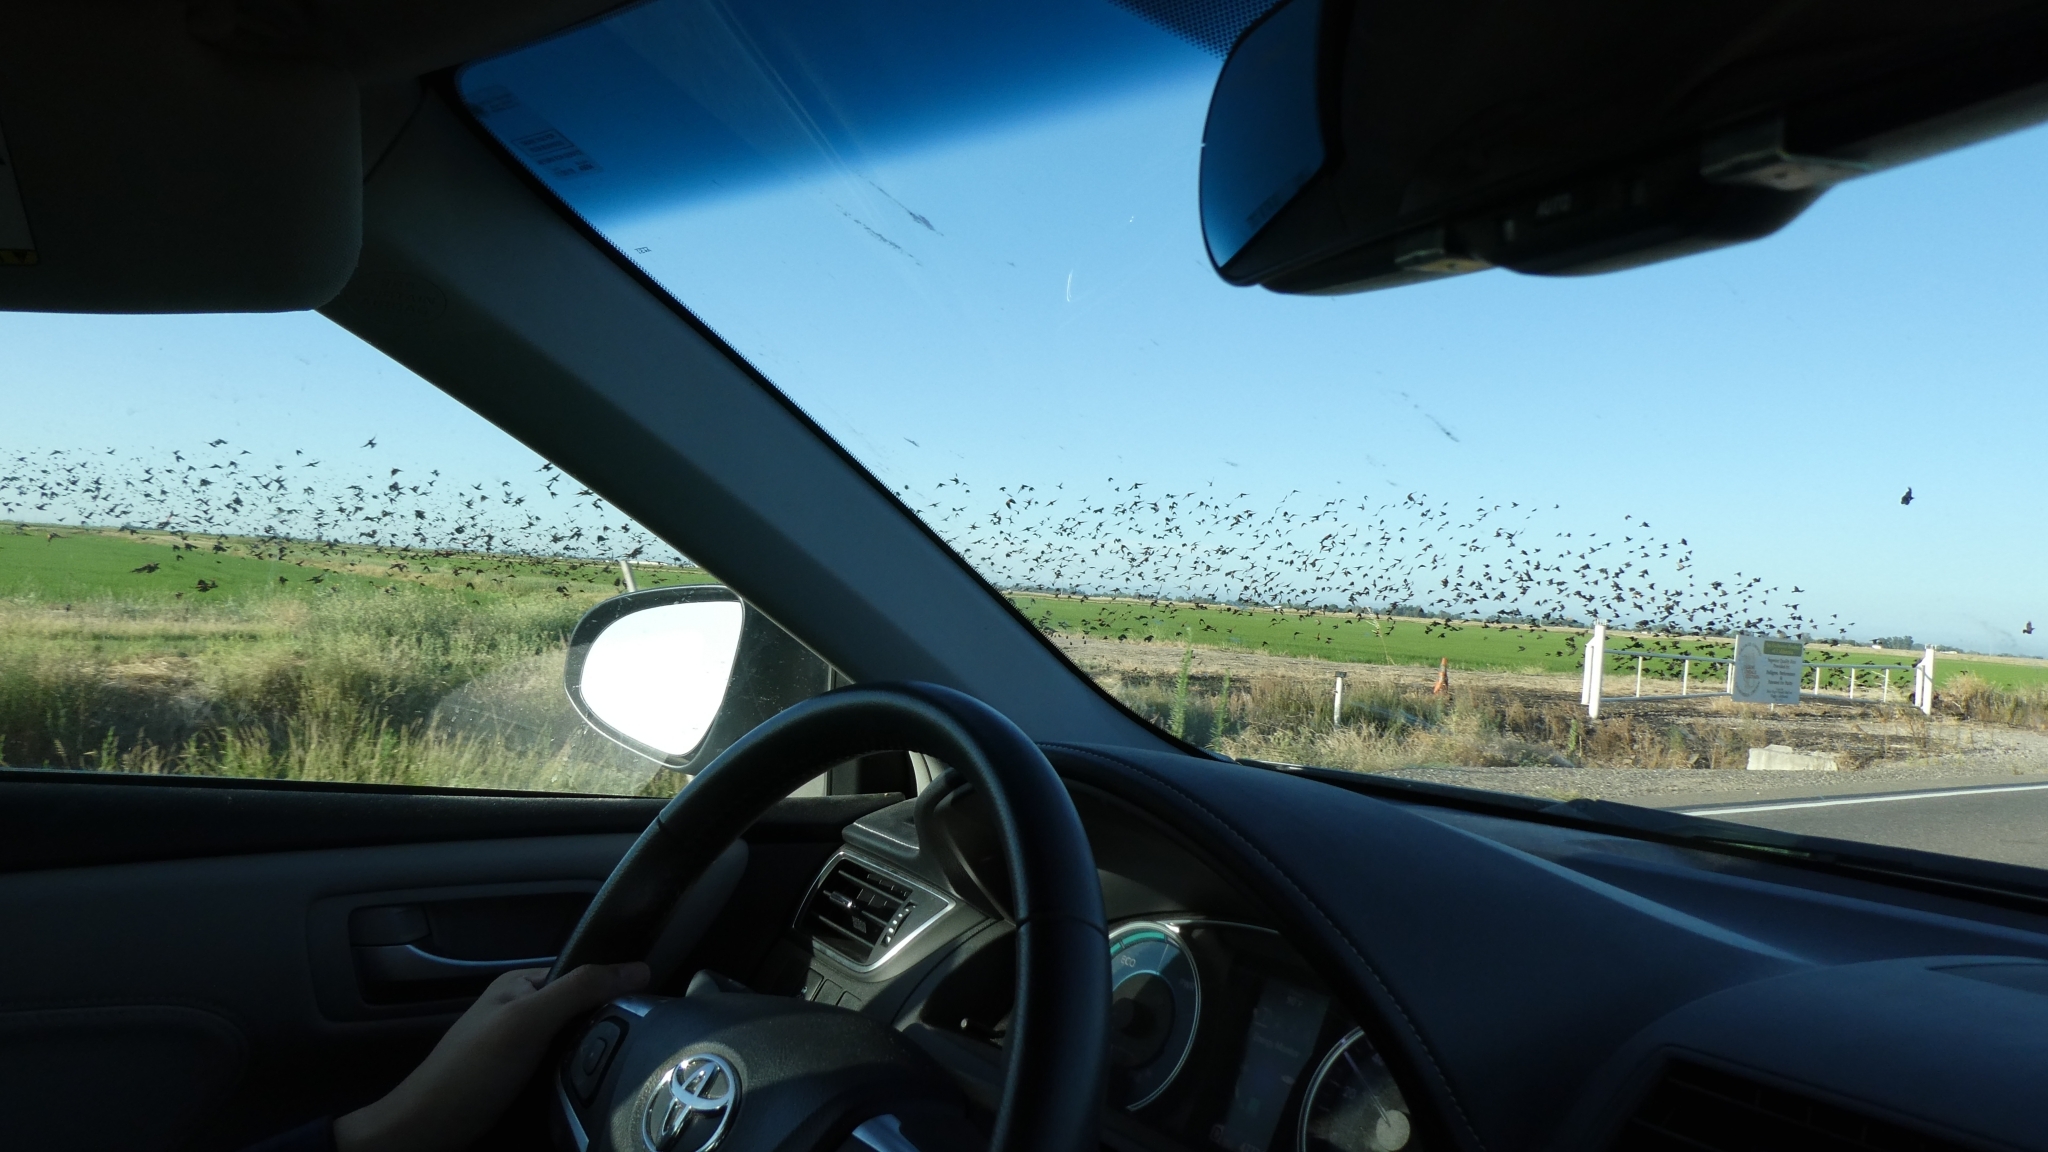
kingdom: Animalia
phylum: Chordata
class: Aves
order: Passeriformes
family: Icteridae
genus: Agelaius
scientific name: Agelaius tricolor
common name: Tricolored blackbird
